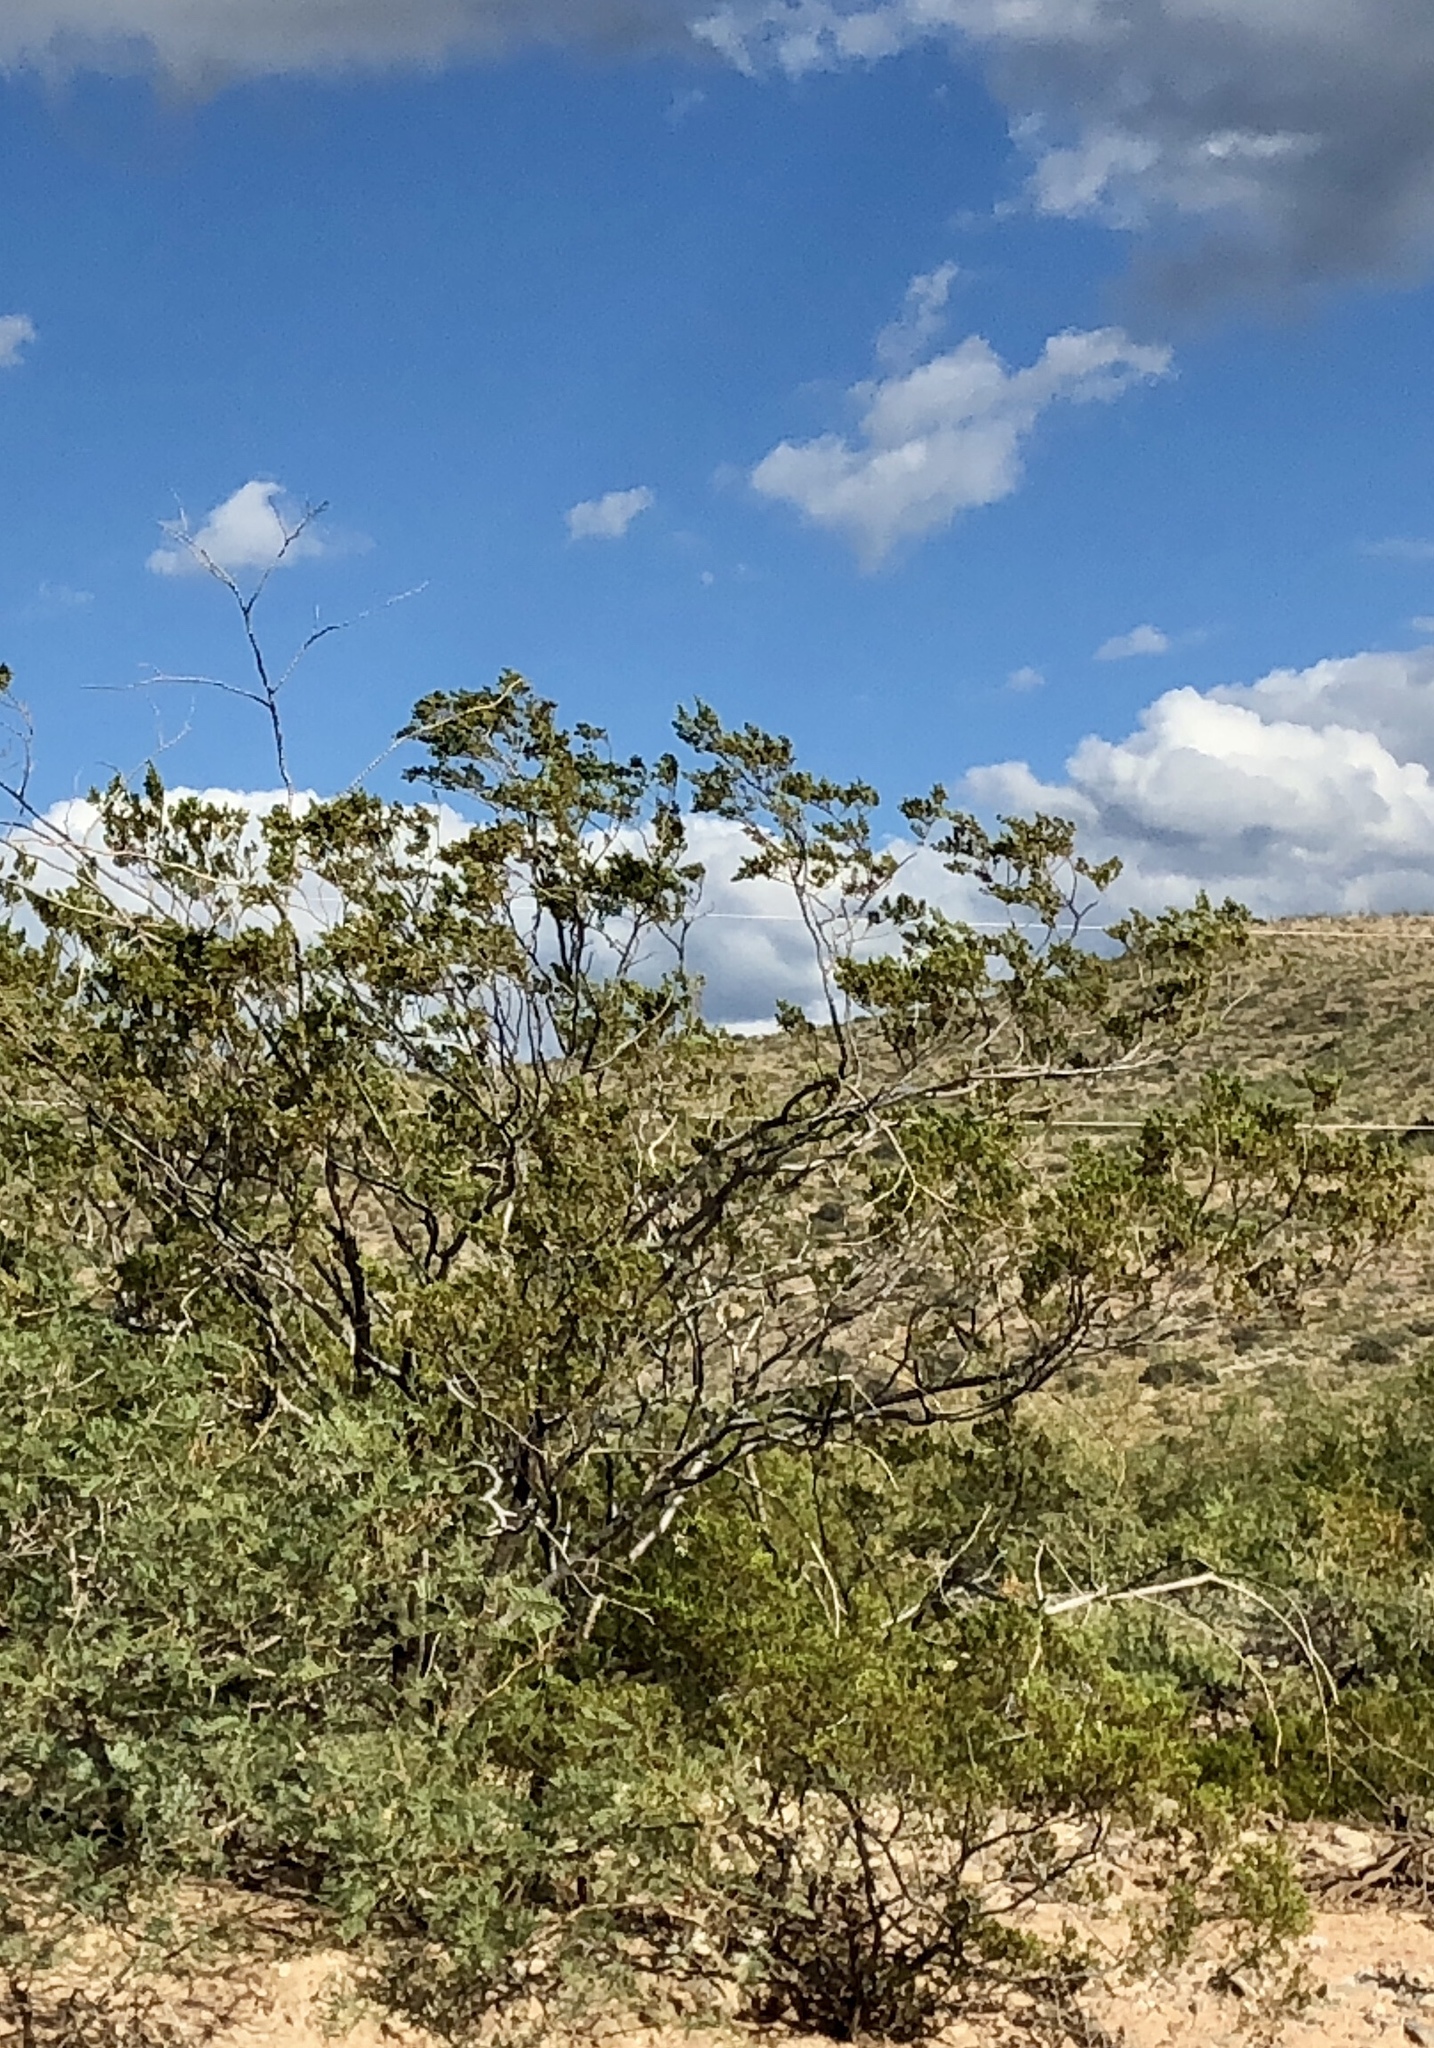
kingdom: Plantae
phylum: Tracheophyta
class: Magnoliopsida
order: Zygophyllales
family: Zygophyllaceae
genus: Larrea
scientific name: Larrea tridentata
